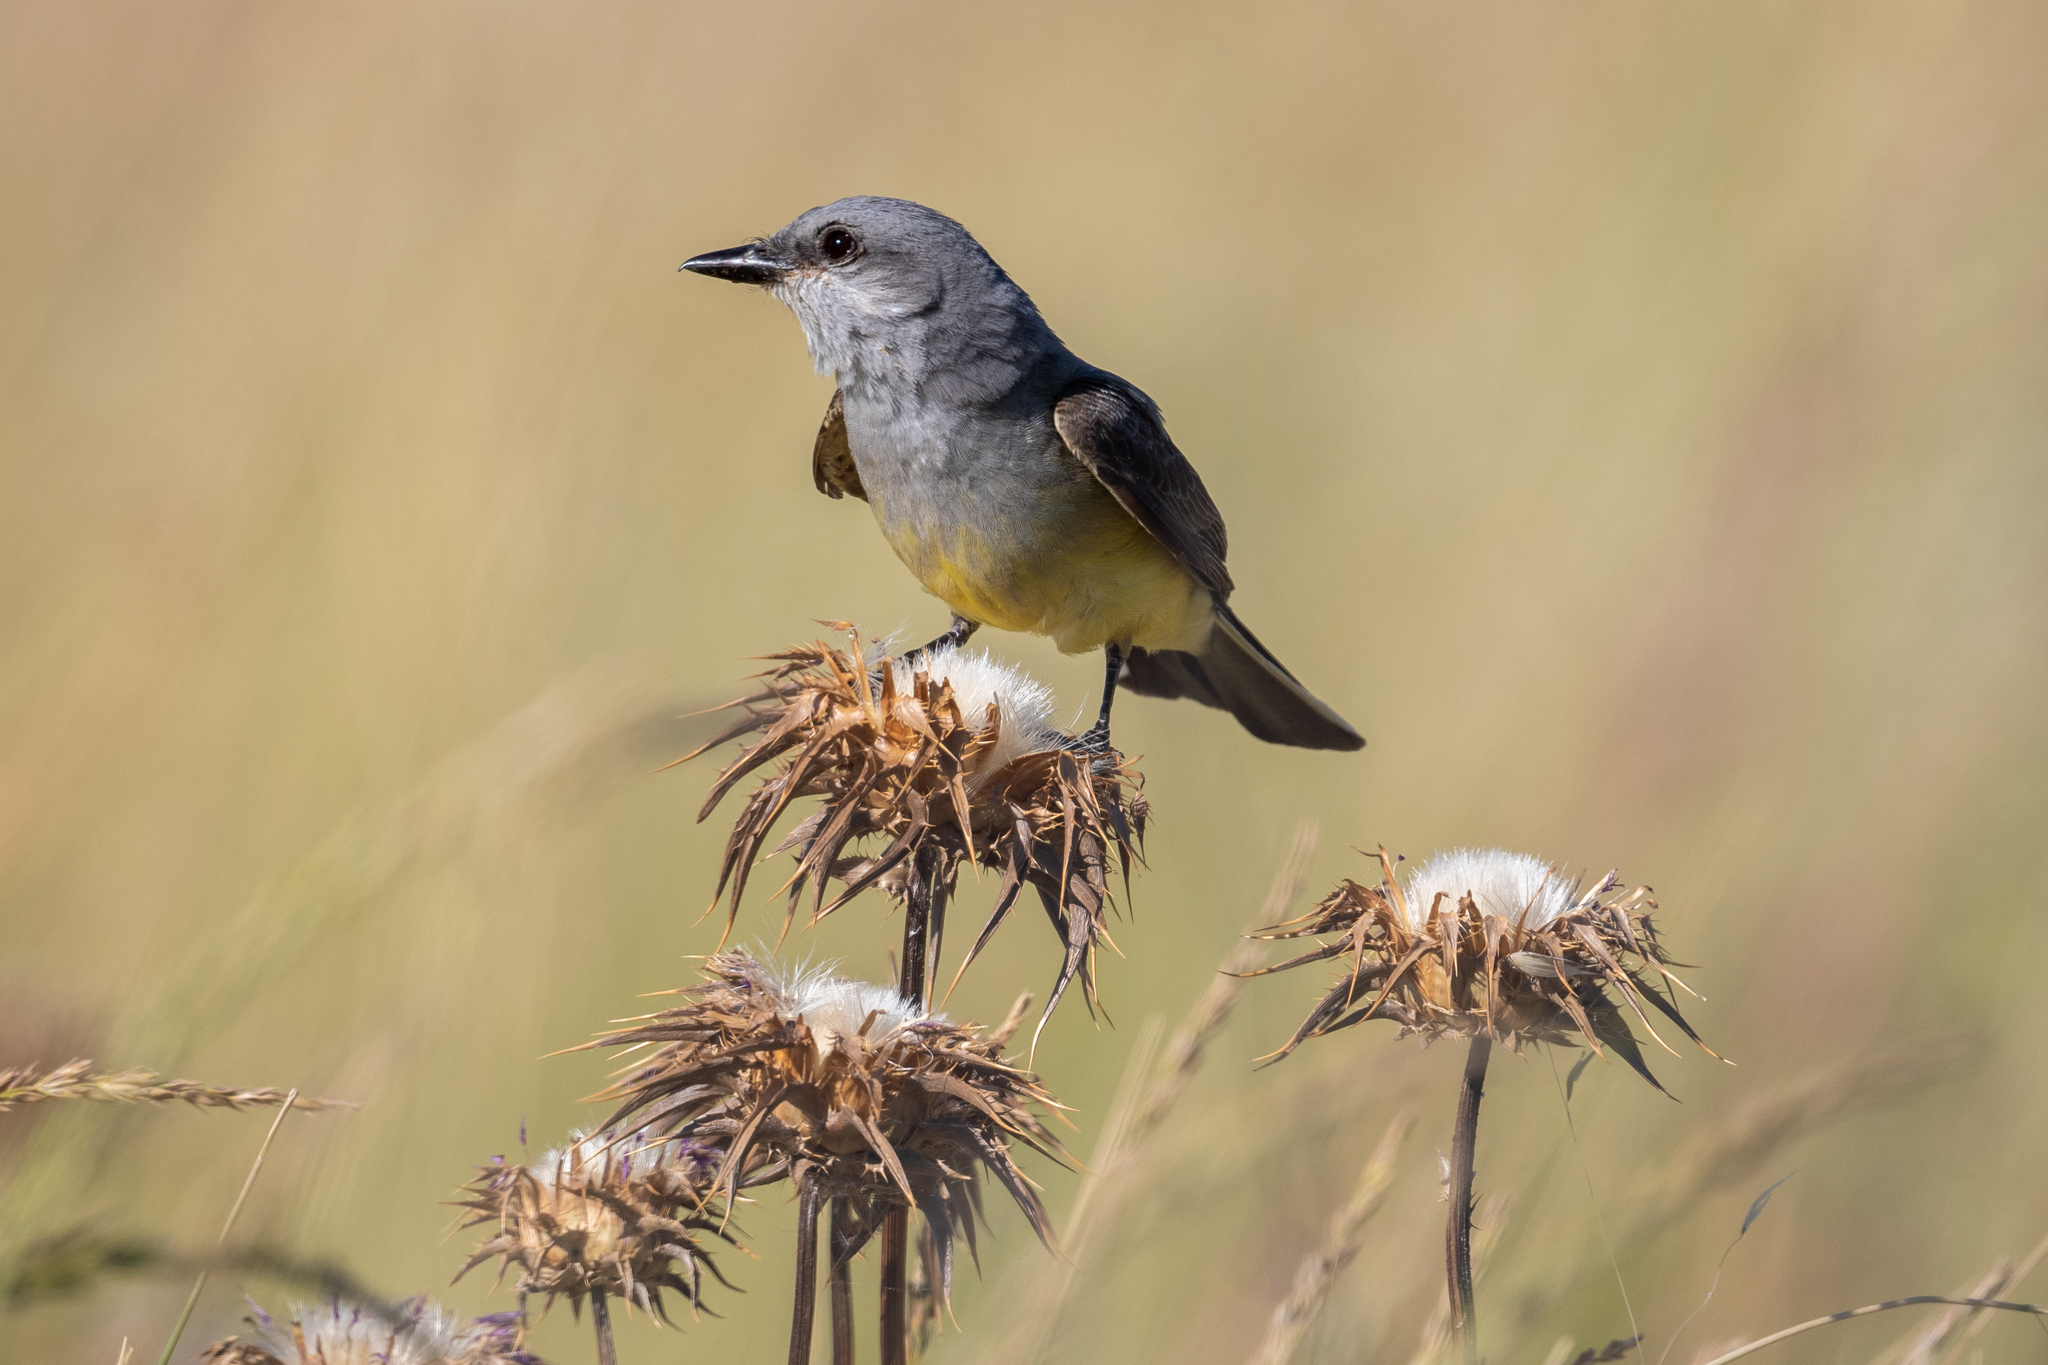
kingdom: Animalia
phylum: Chordata
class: Aves
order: Passeriformes
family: Tyrannidae
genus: Tyrannus
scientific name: Tyrannus verticalis
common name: Western kingbird
